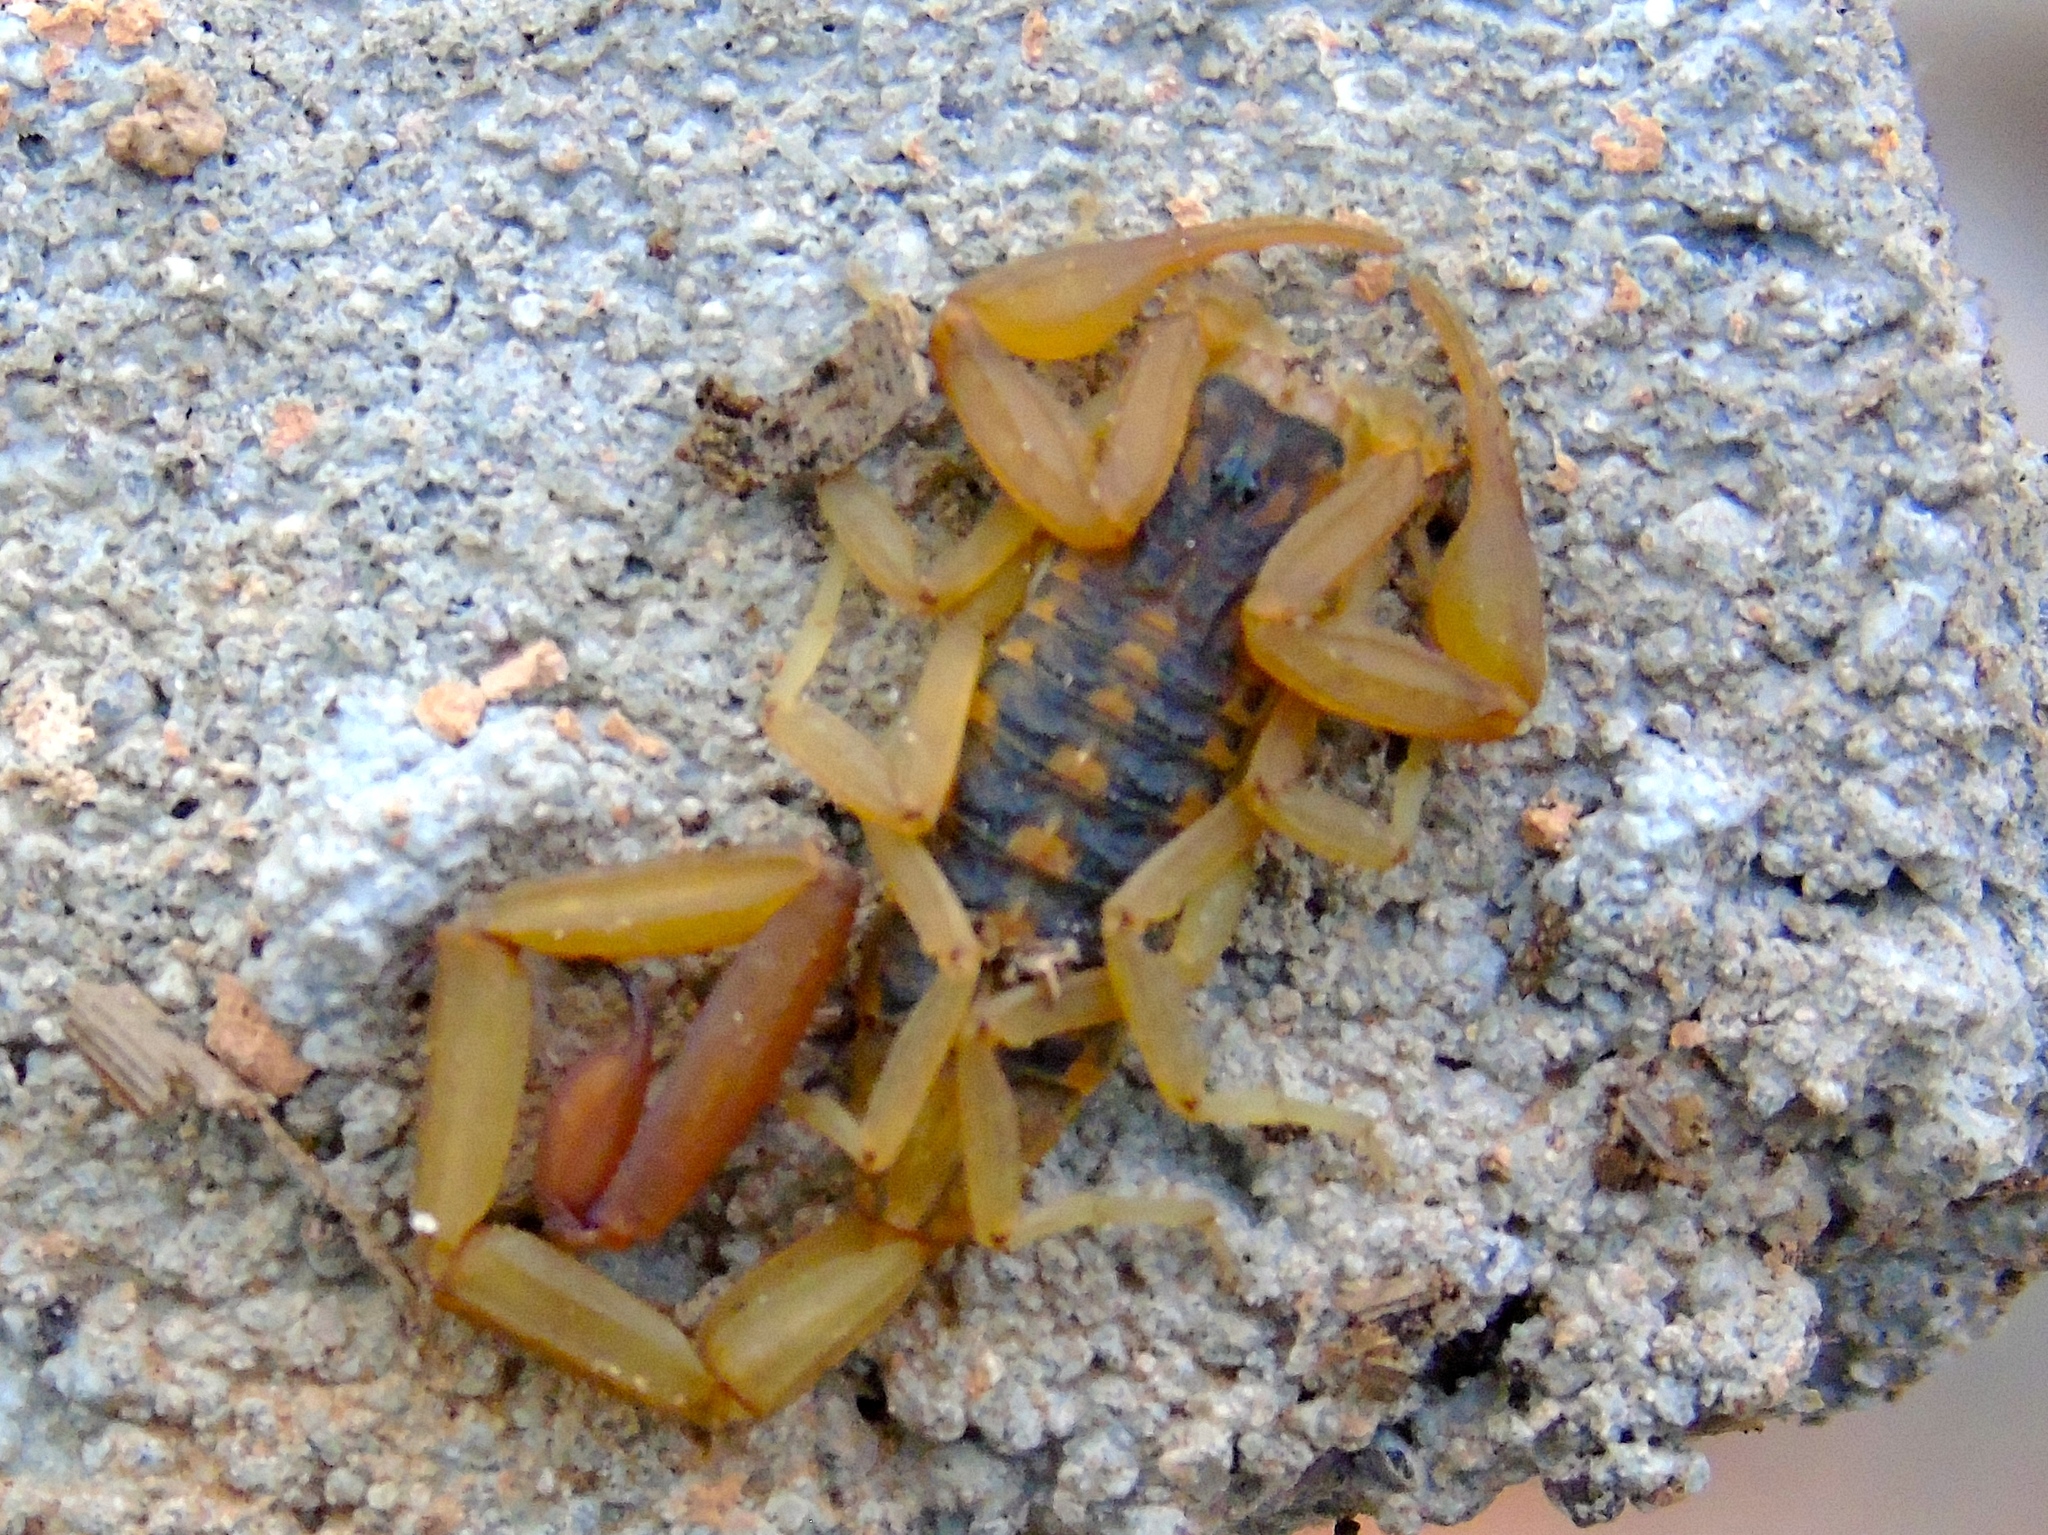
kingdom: Animalia
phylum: Arthropoda
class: Arachnida
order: Scorpiones
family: Buthidae
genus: Centruroides
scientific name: Centruroides baldazoi
